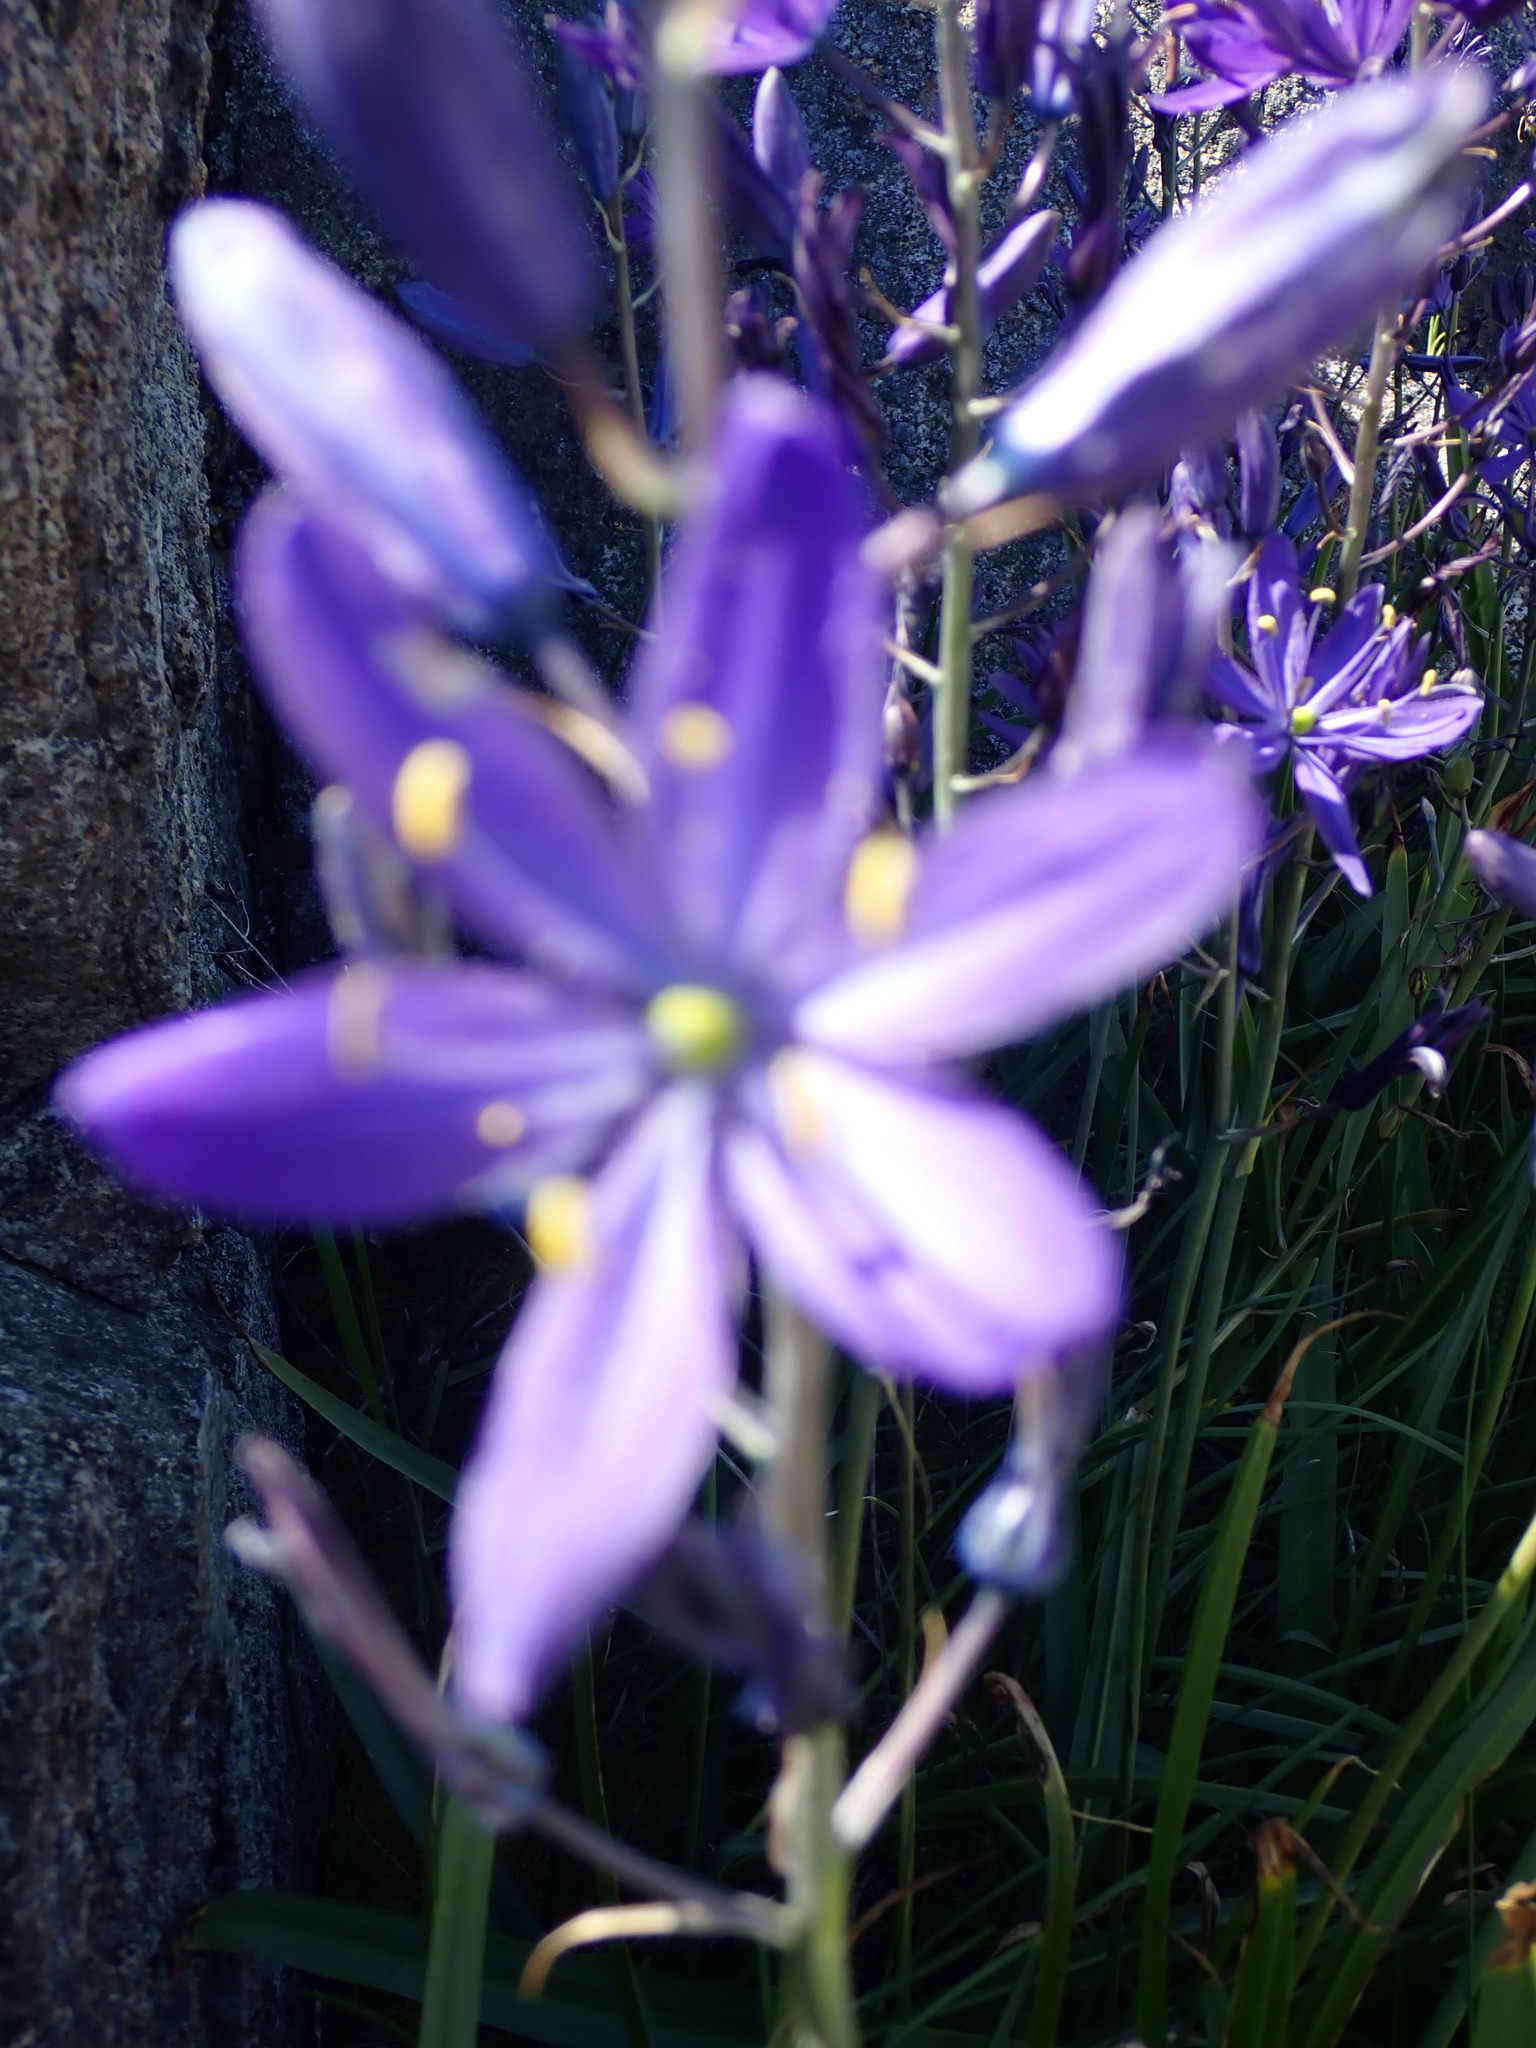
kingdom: Plantae
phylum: Tracheophyta
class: Liliopsida
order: Asparagales
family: Asparagaceae
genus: Camassia
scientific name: Camassia leichtlinii
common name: Leichtlin's camas
